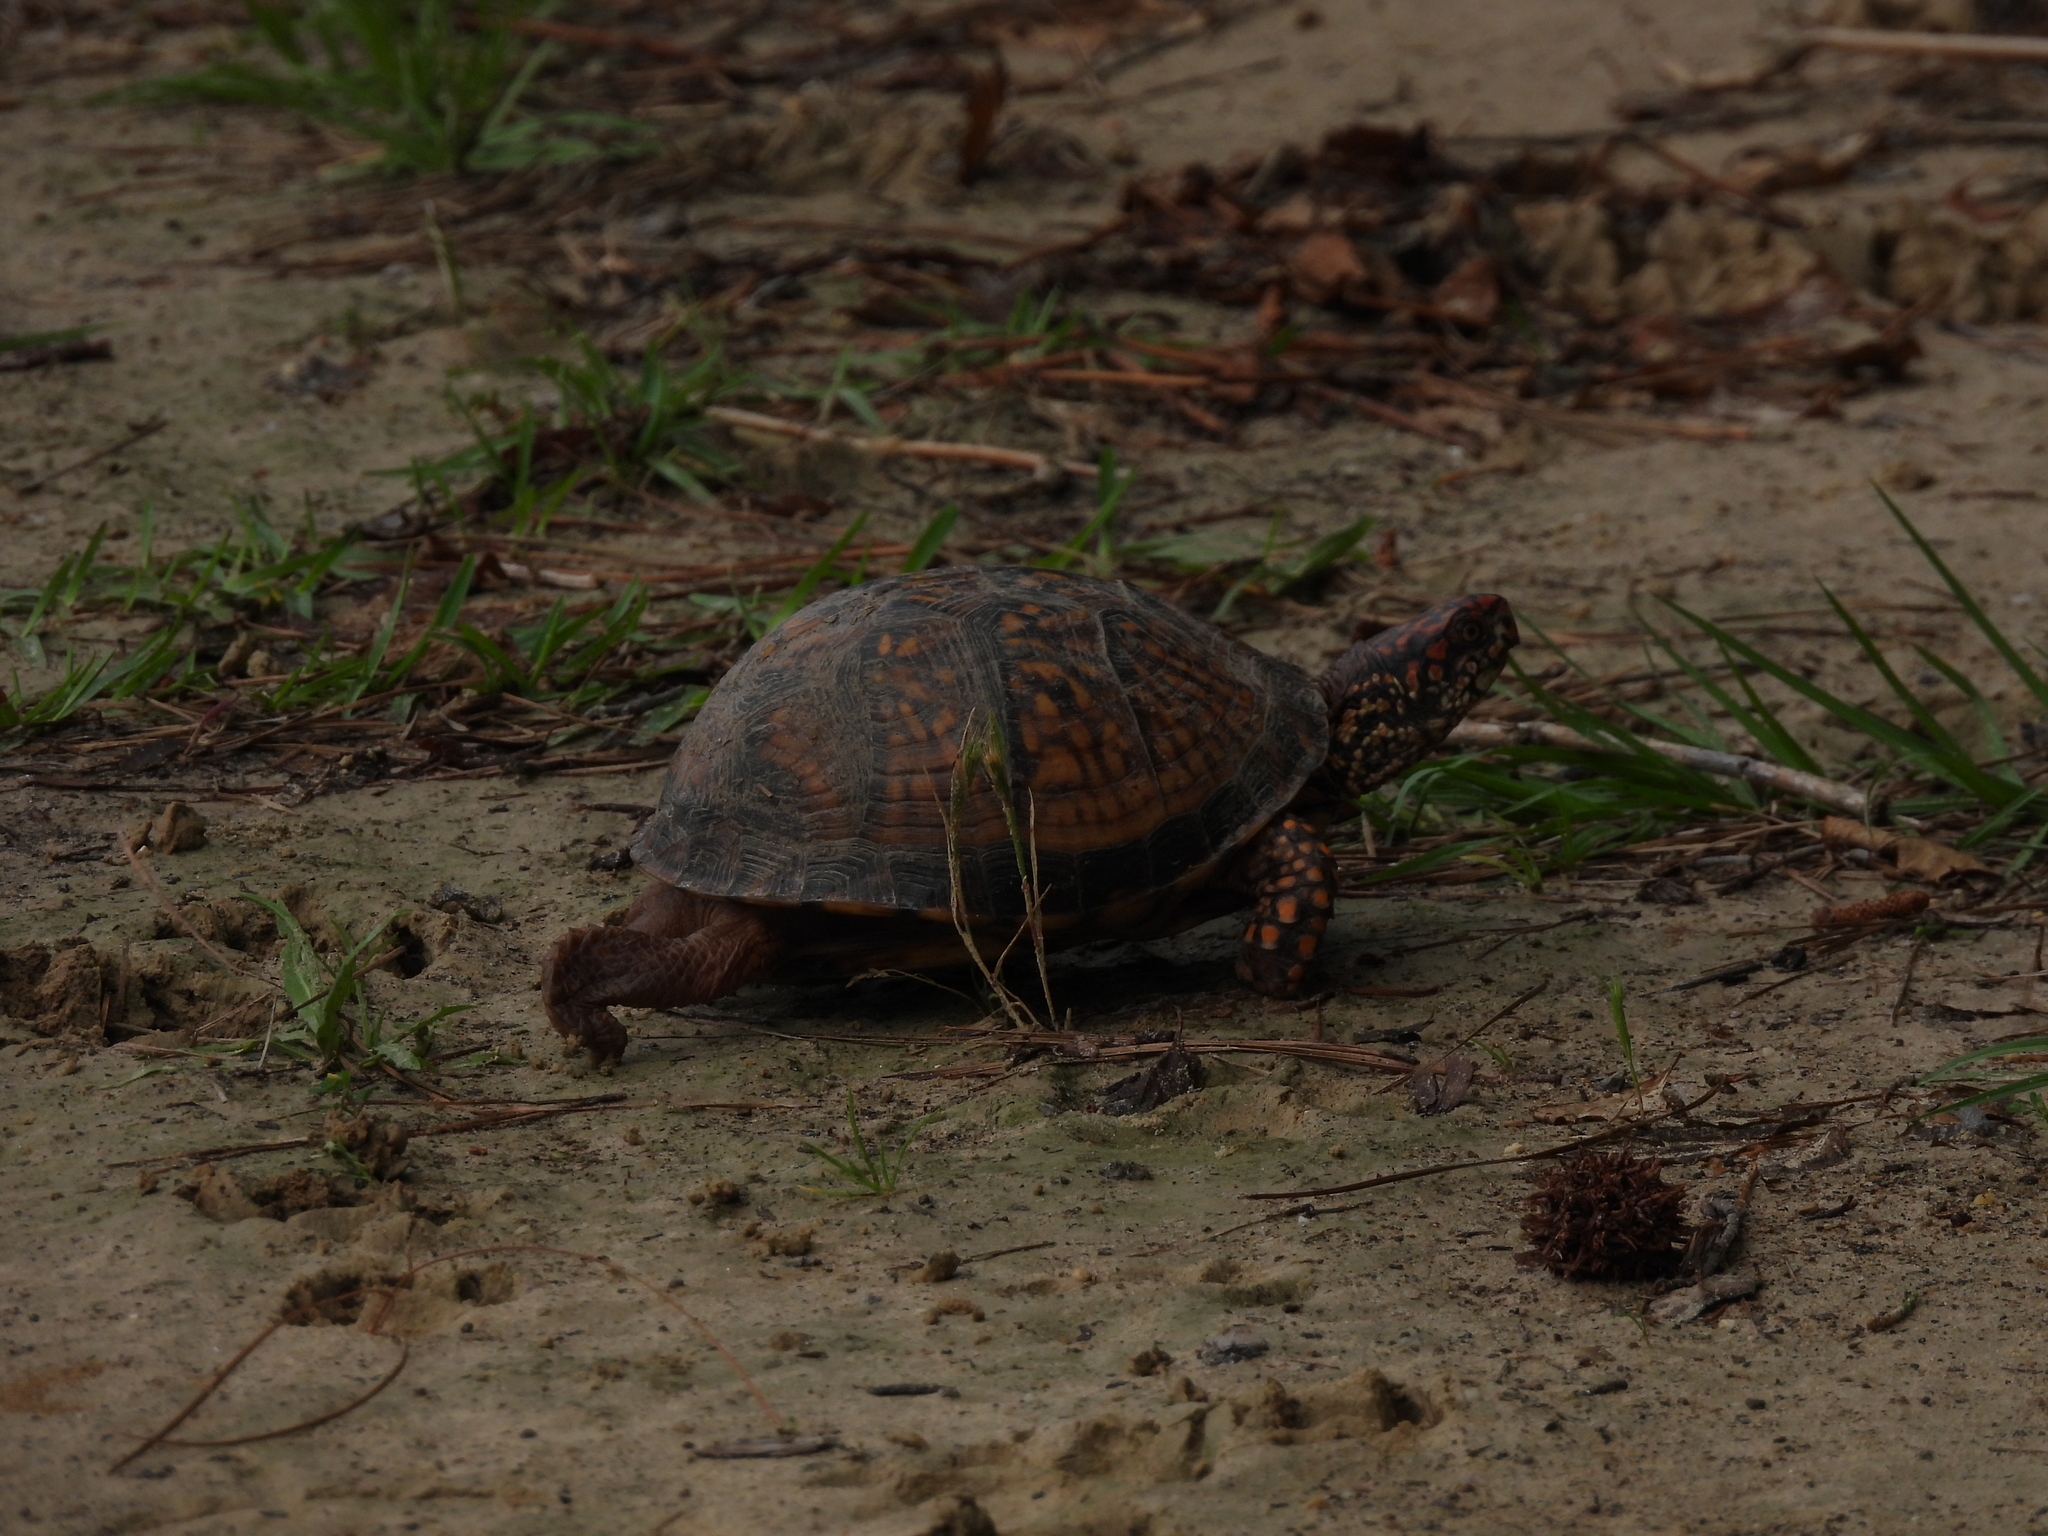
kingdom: Animalia
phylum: Chordata
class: Testudines
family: Emydidae
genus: Terrapene
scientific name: Terrapene carolina
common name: Common box turtle
